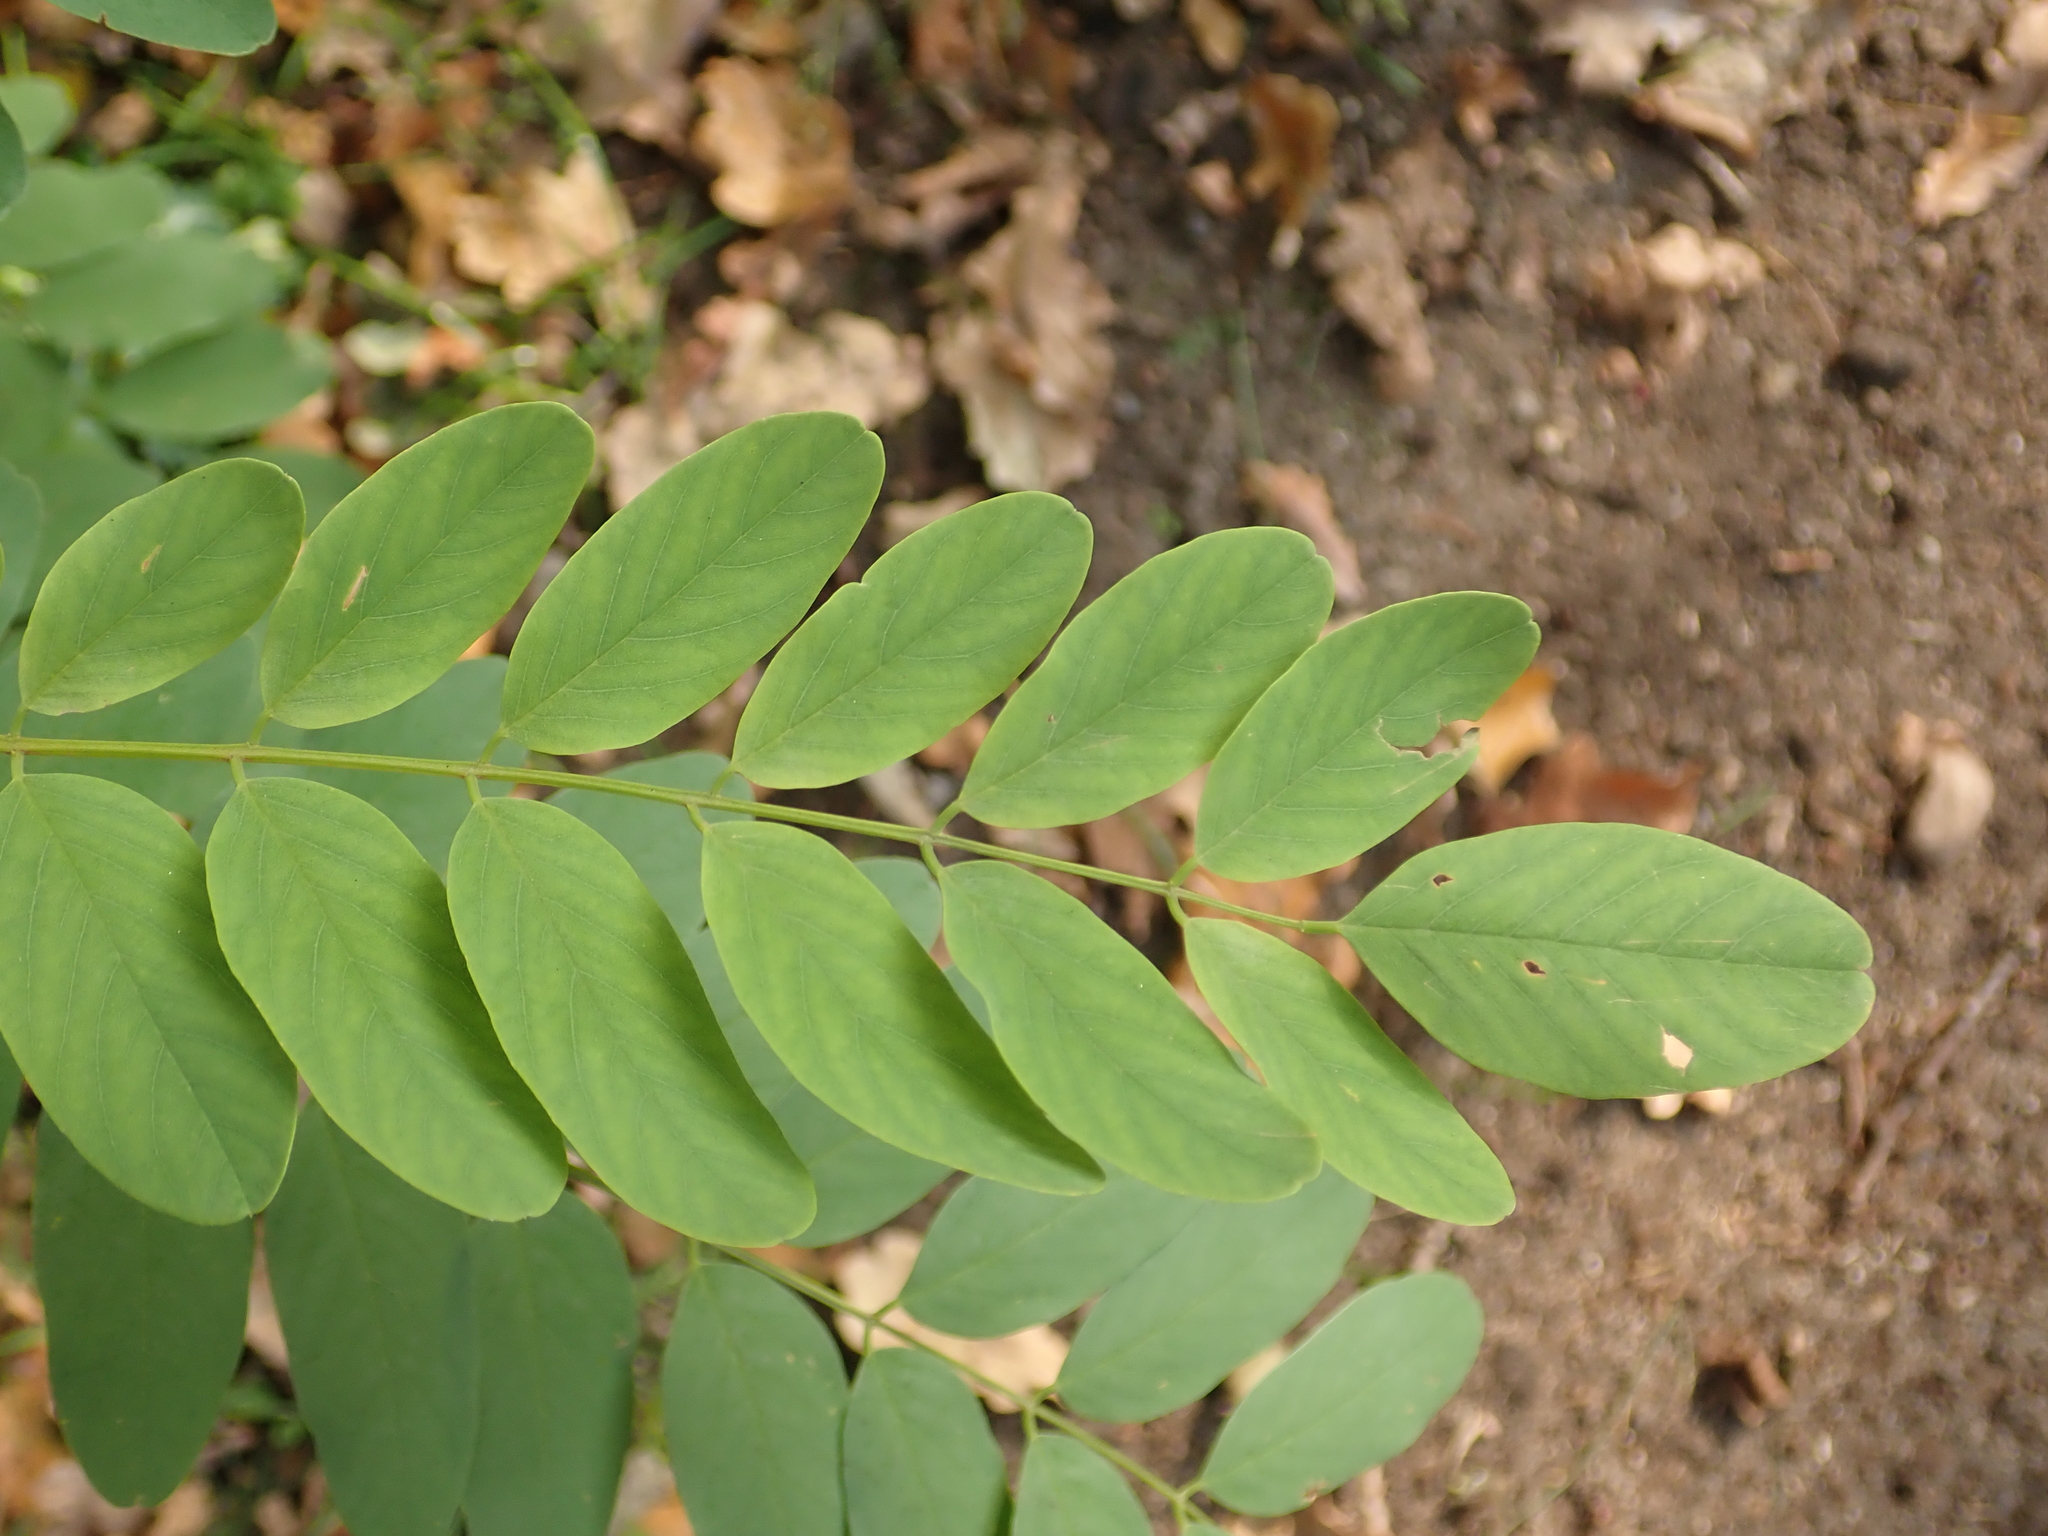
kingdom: Plantae
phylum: Tracheophyta
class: Magnoliopsida
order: Fabales
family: Fabaceae
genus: Robinia
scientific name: Robinia pseudoacacia
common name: Black locust
